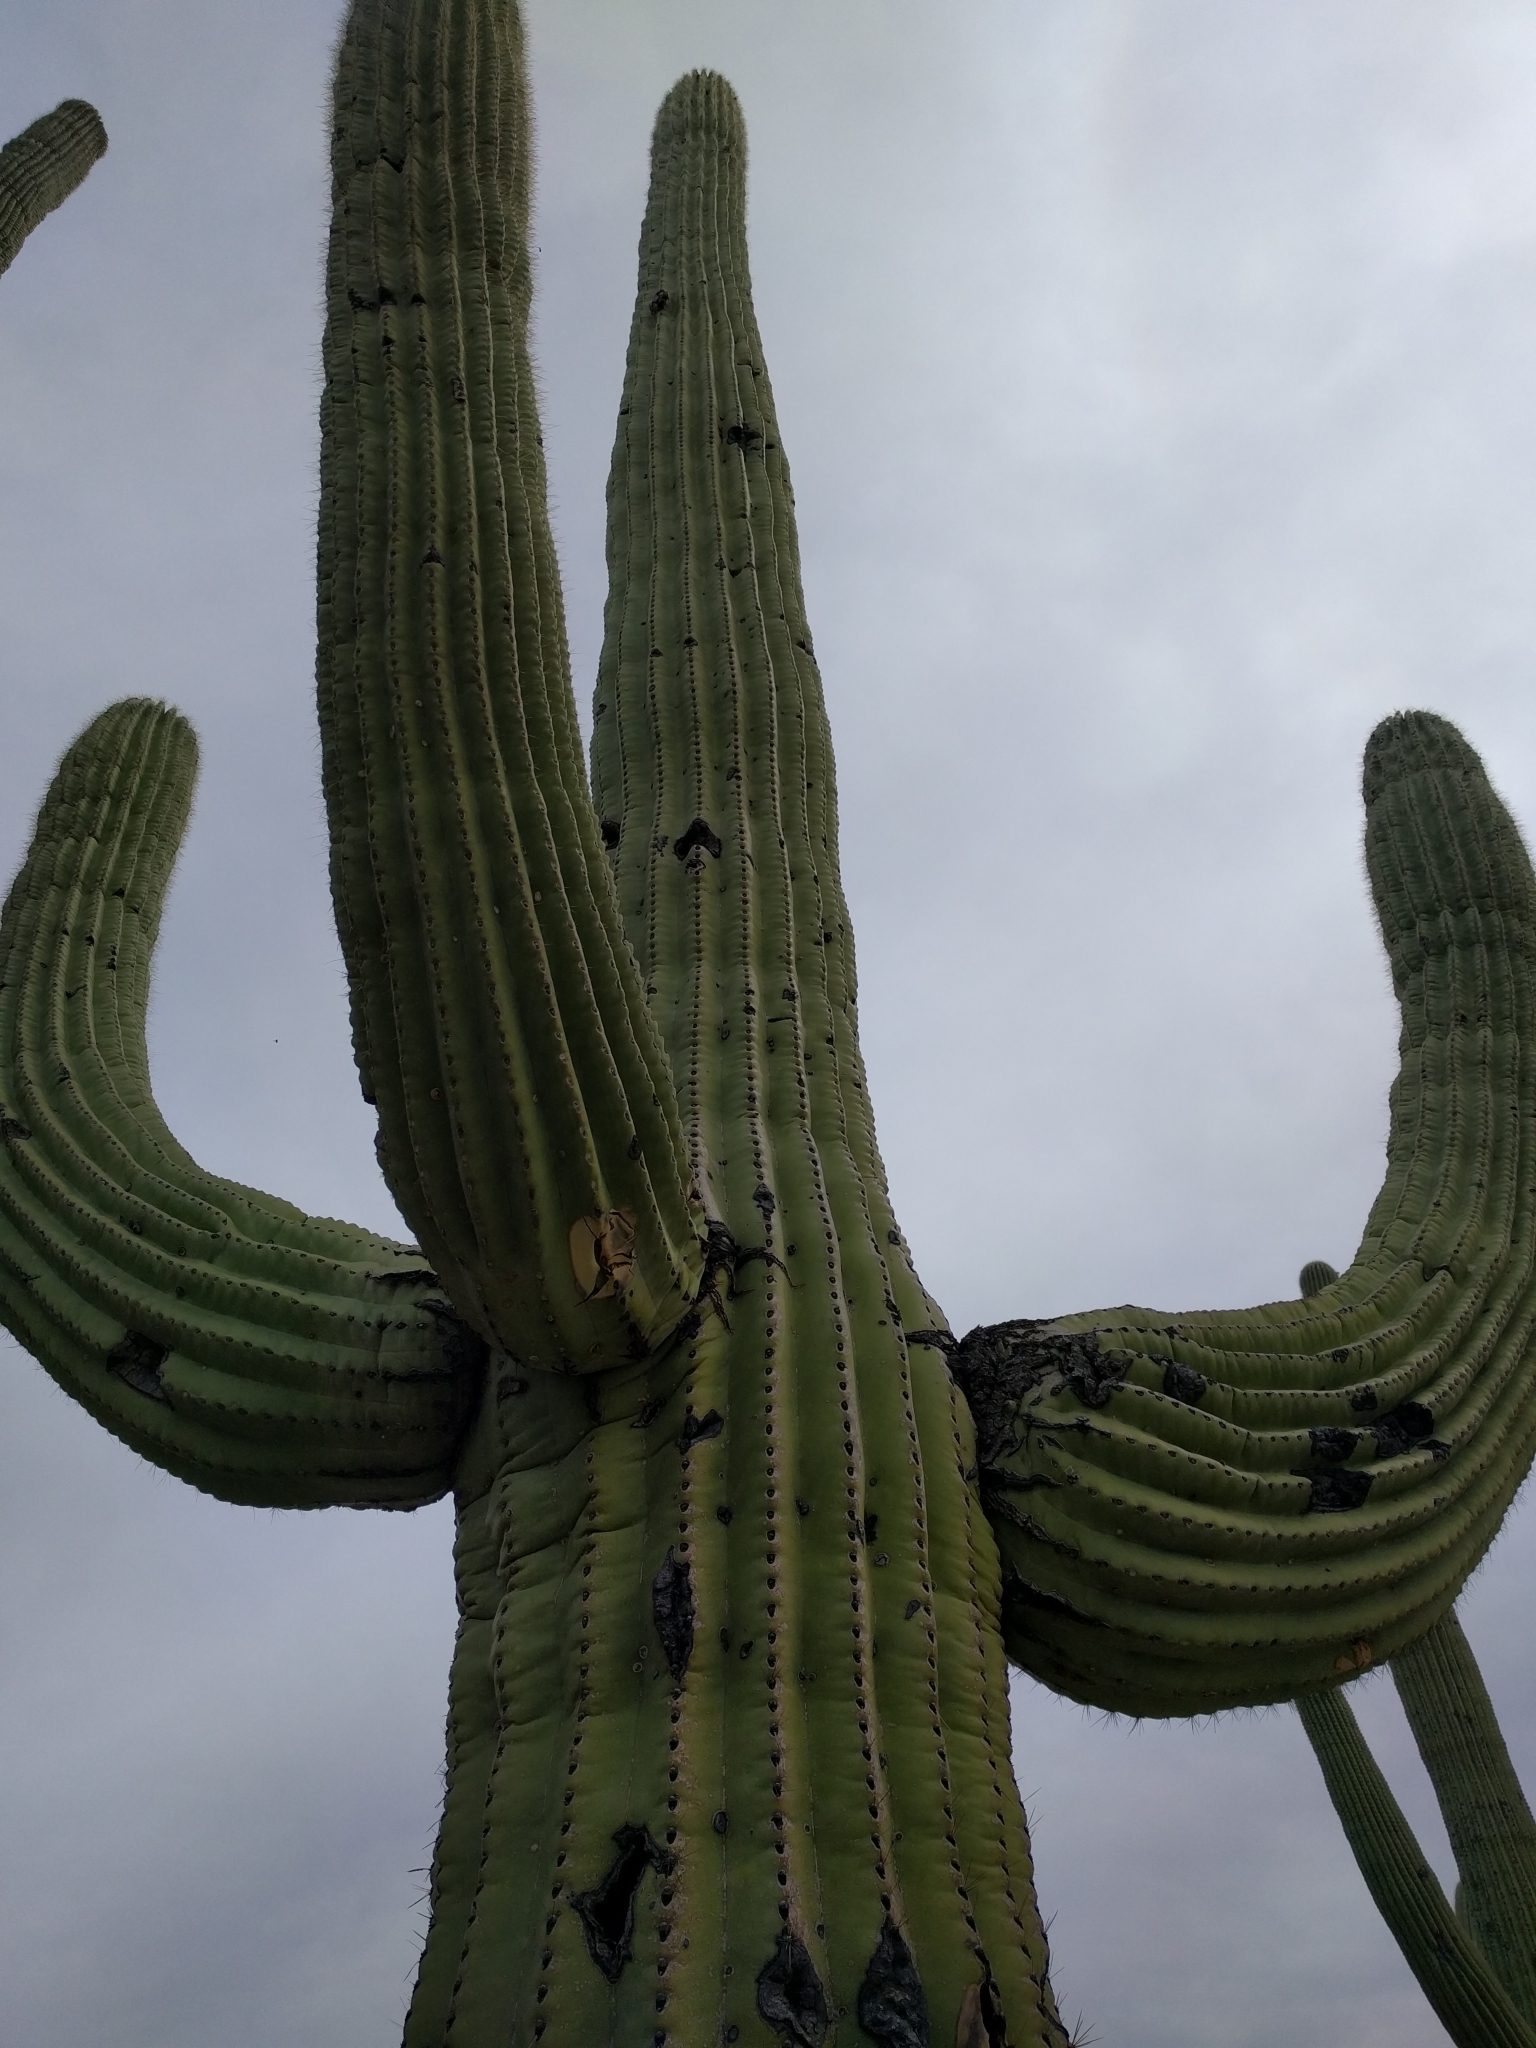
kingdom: Plantae
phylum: Tracheophyta
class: Magnoliopsida
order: Caryophyllales
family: Cactaceae
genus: Carnegiea
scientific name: Carnegiea gigantea
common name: Saguaro
